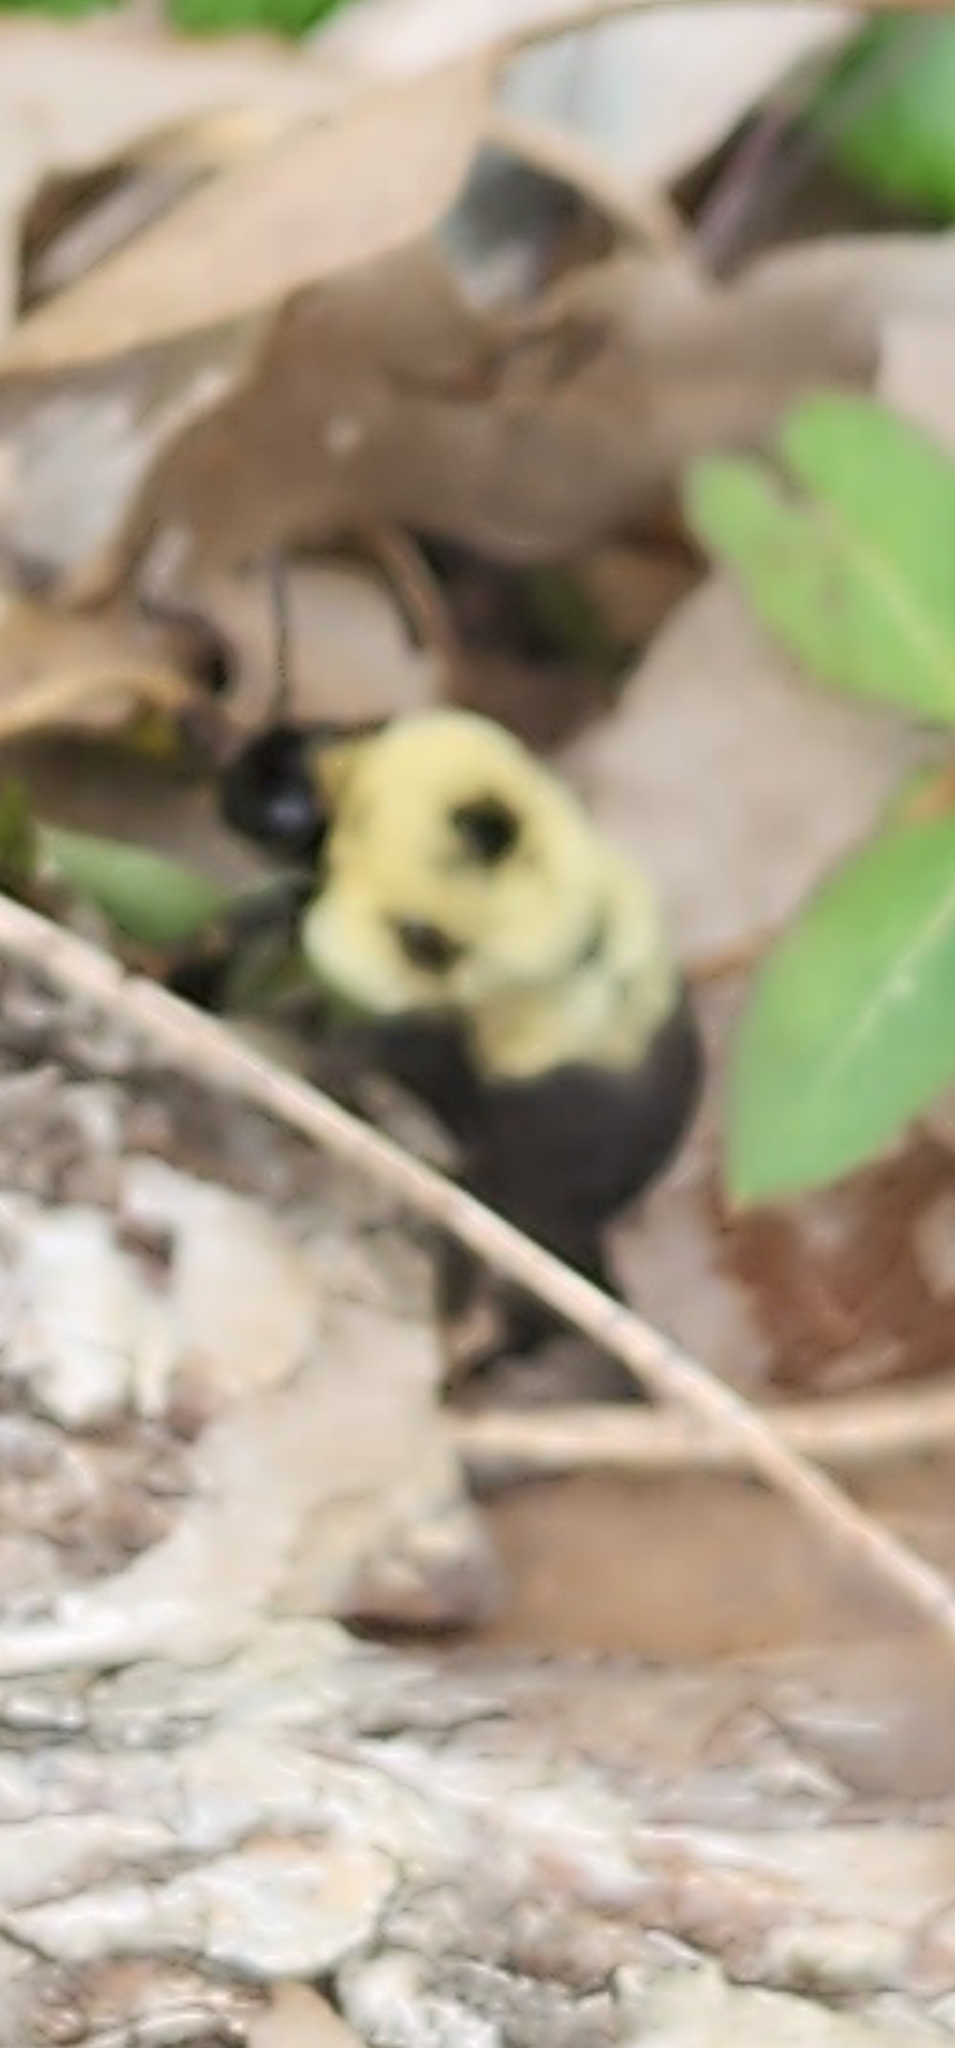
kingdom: Animalia
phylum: Arthropoda
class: Insecta
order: Hymenoptera
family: Apidae
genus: Bombus
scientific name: Bombus bimaculatus
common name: Two-spotted bumble bee
